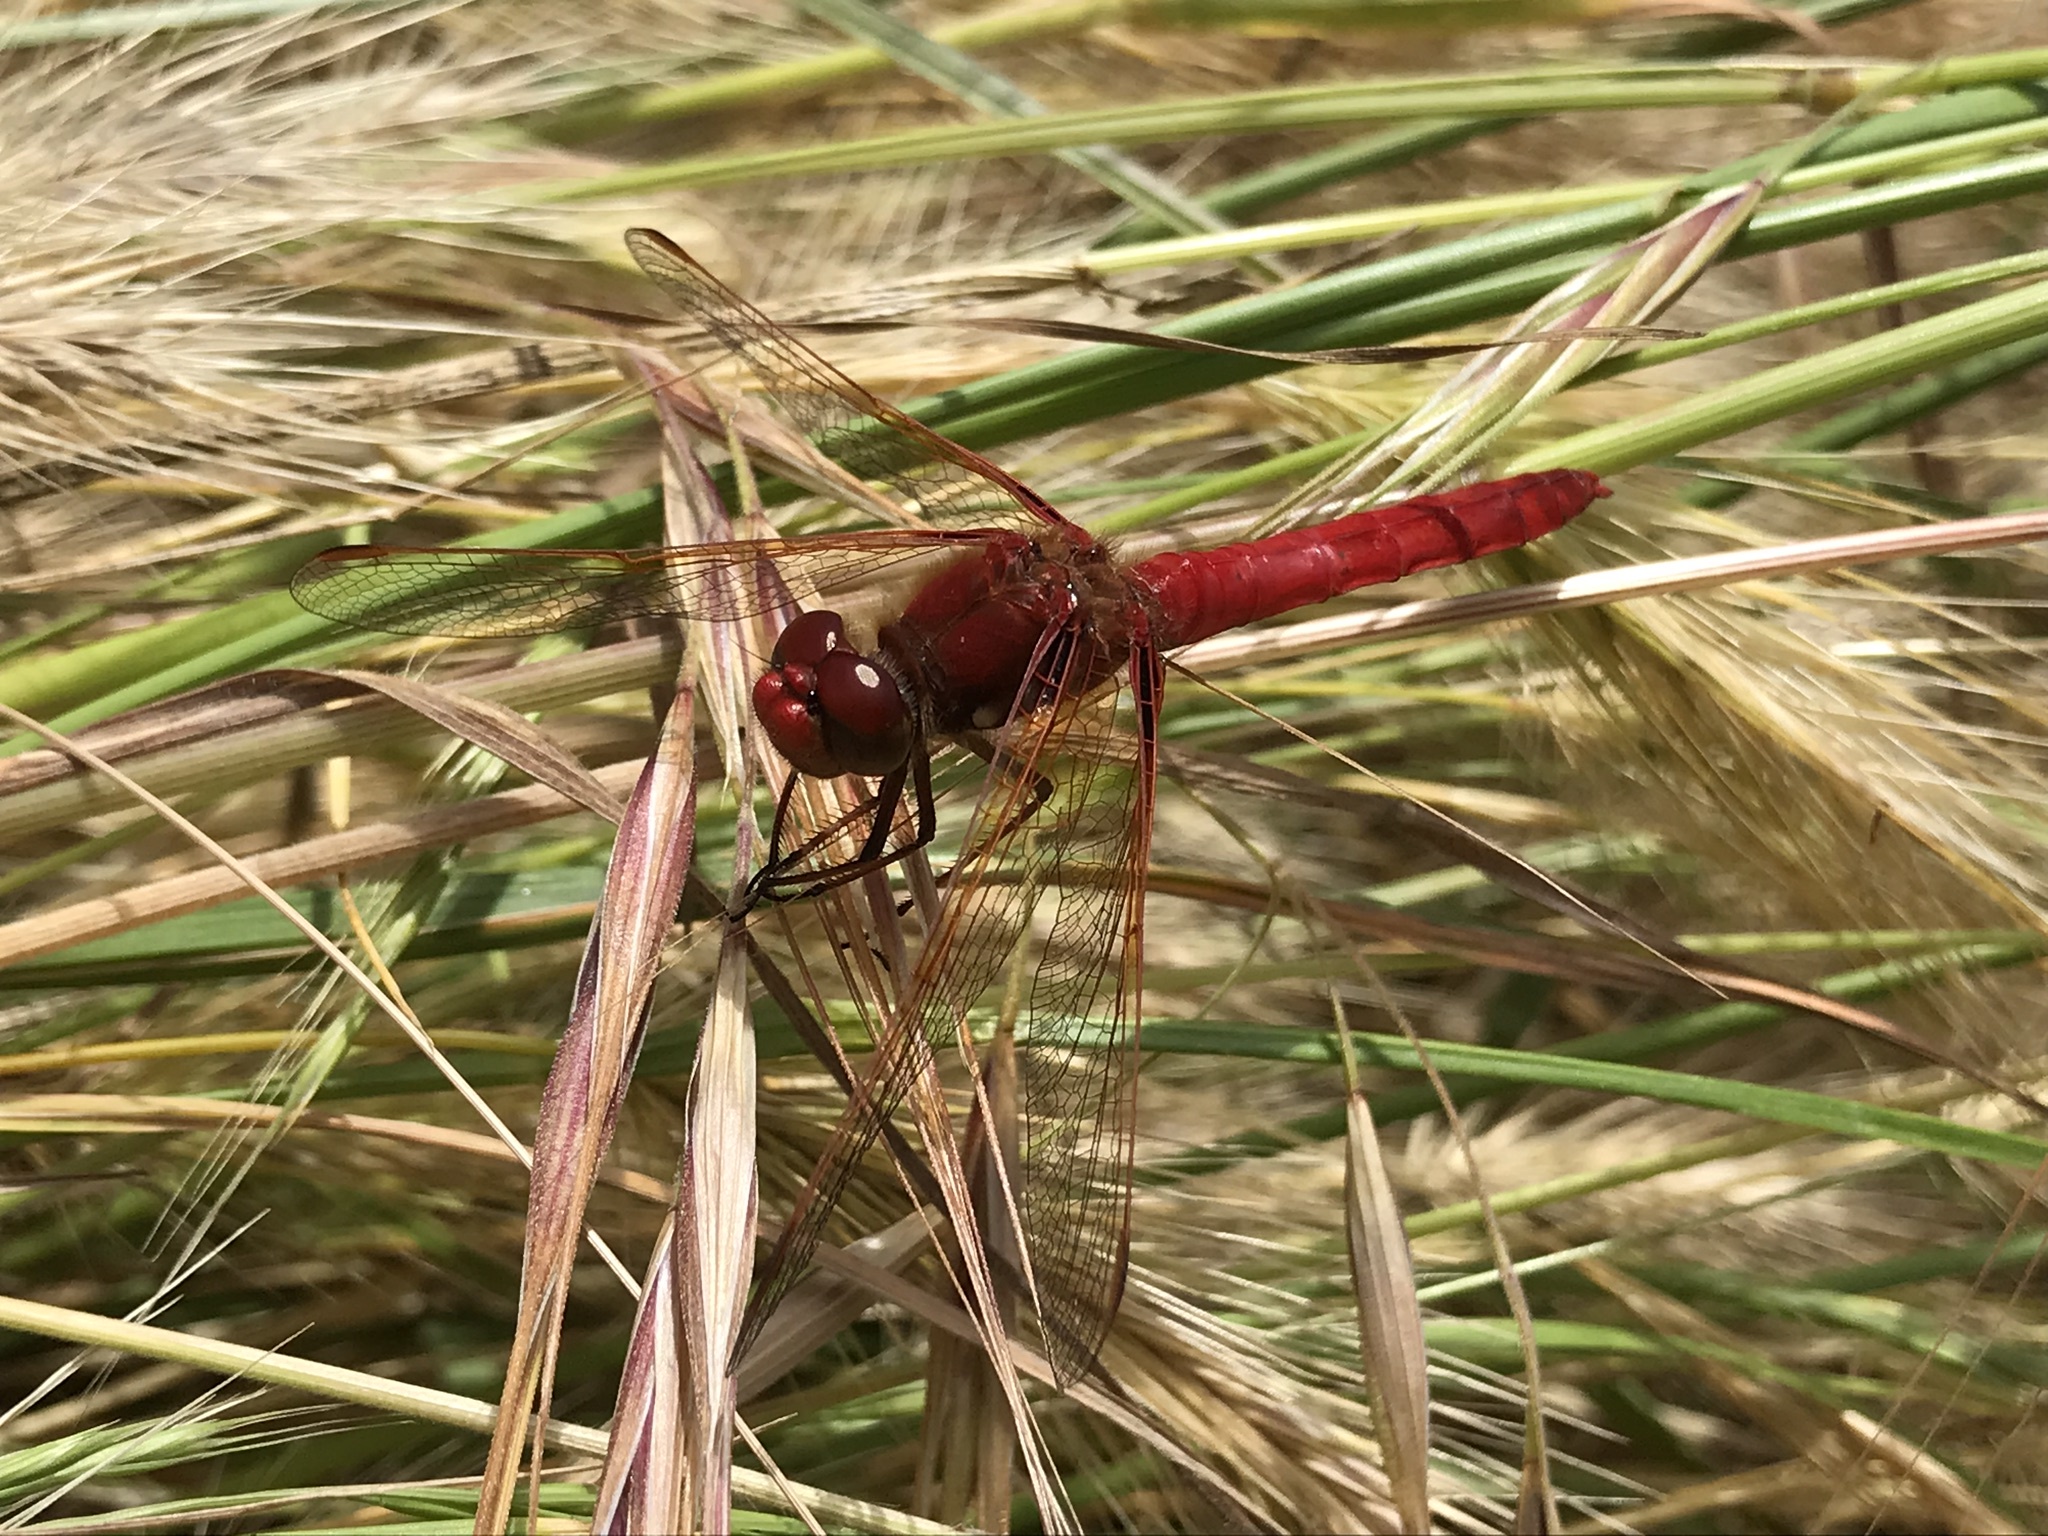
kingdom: Animalia
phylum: Arthropoda
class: Insecta
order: Odonata
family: Libellulidae
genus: Sympetrum
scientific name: Sympetrum illotum
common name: Cardinal meadowhawk
